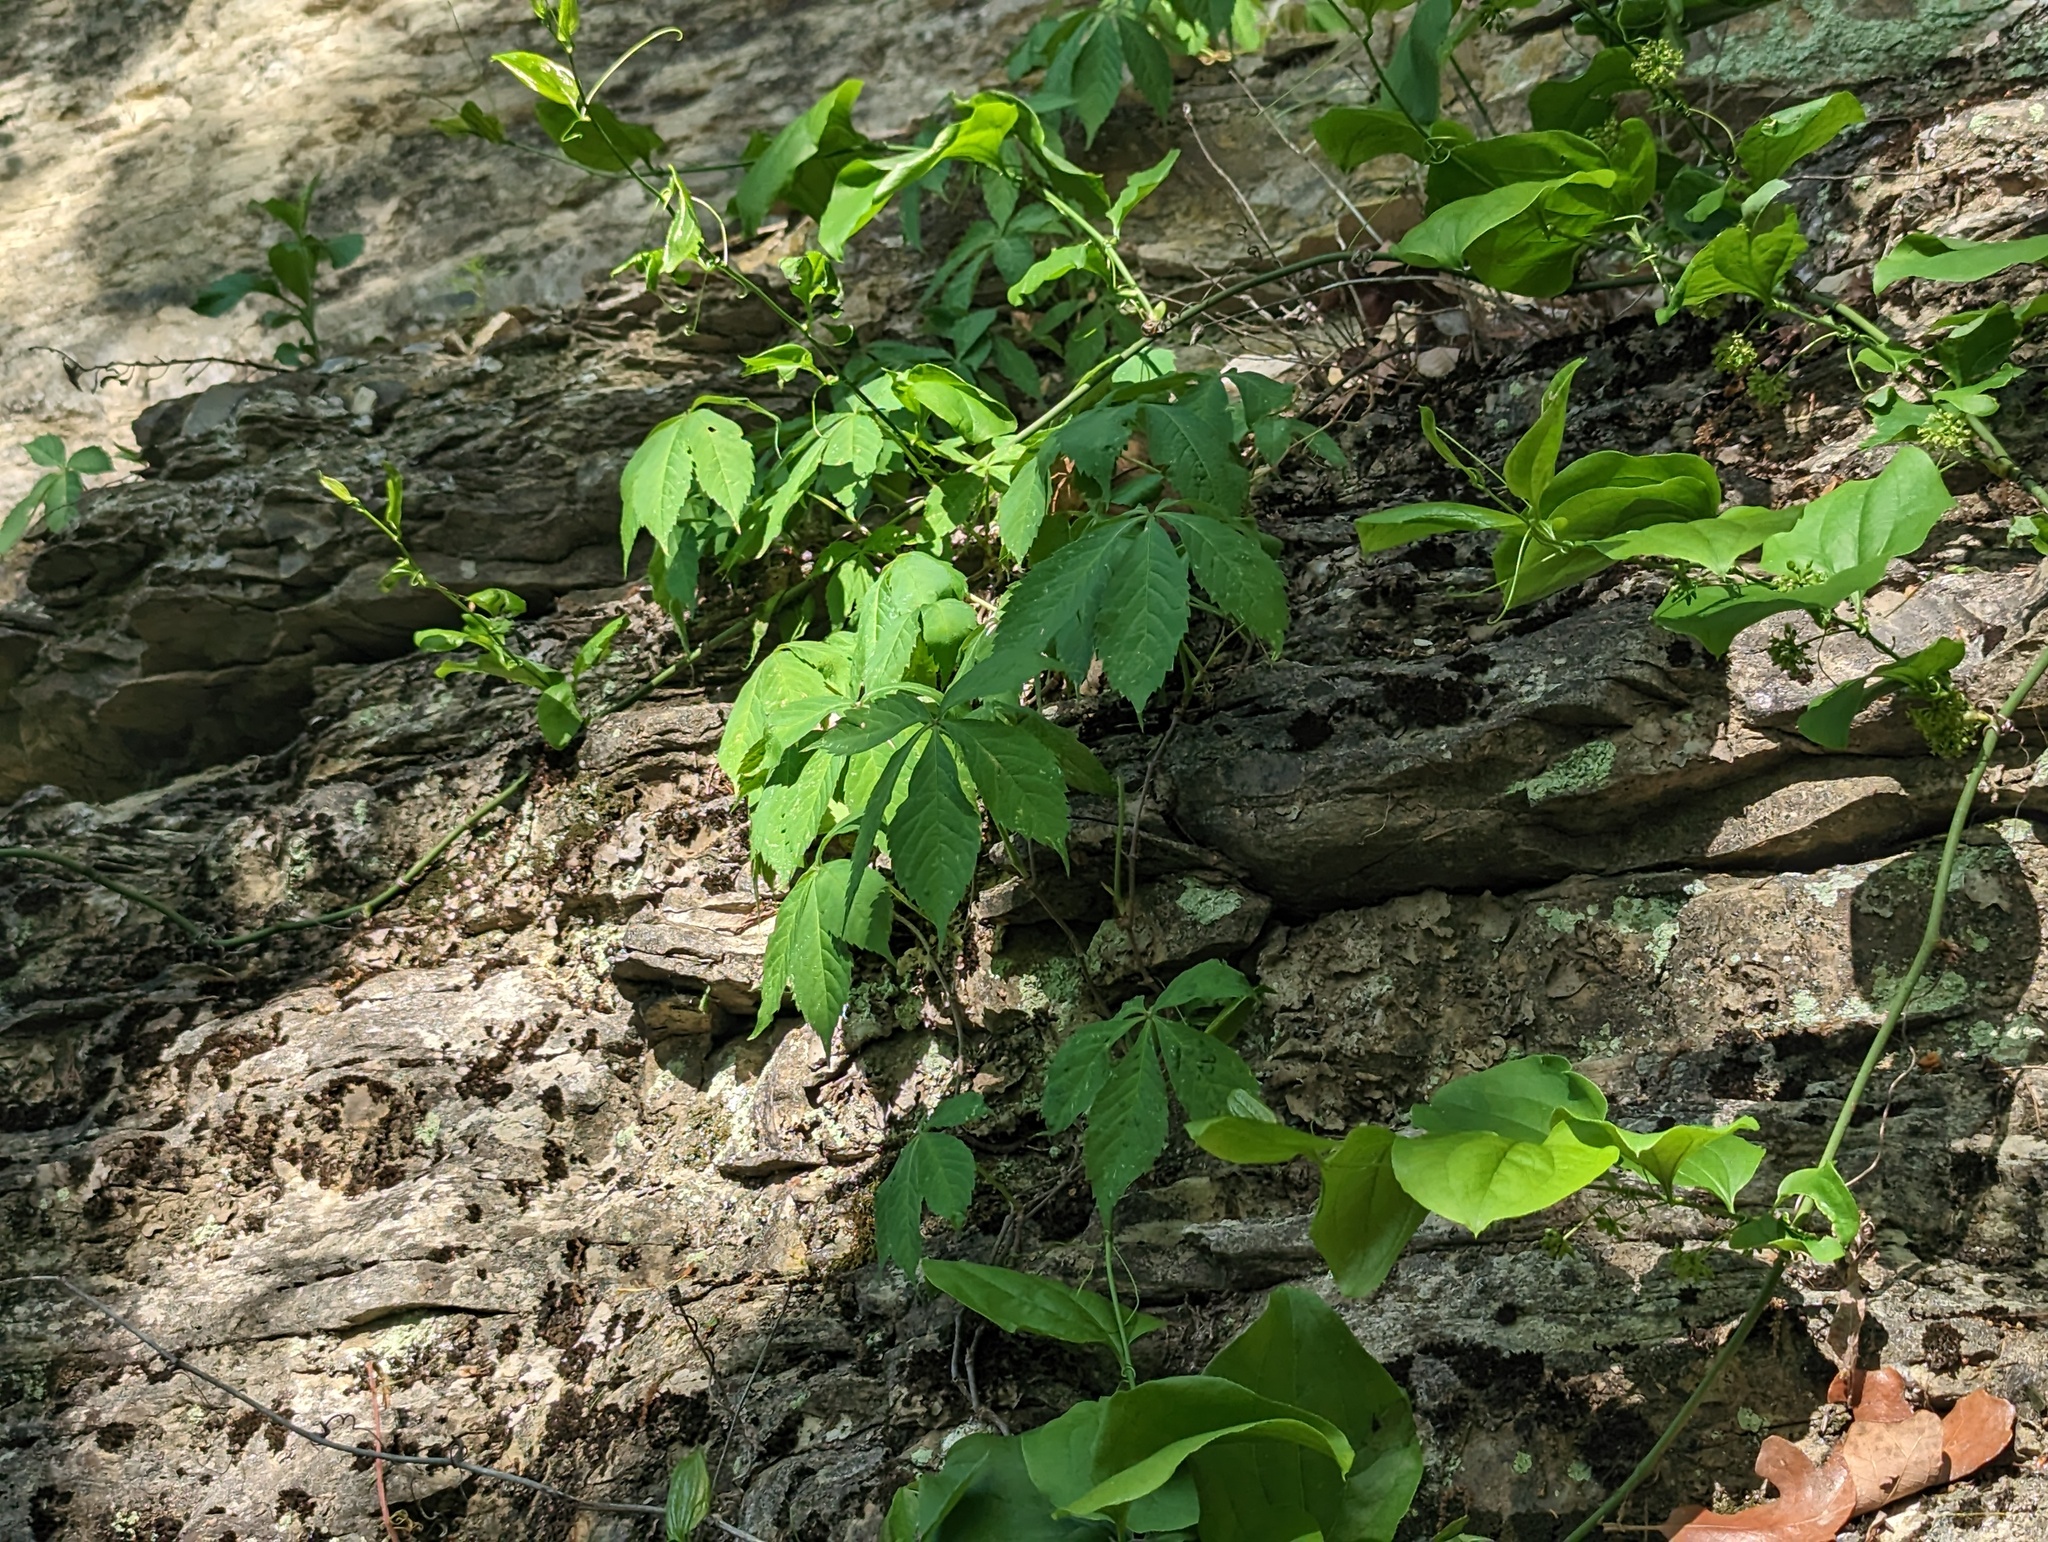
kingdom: Plantae
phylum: Tracheophyta
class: Magnoliopsida
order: Vitales
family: Vitaceae
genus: Parthenocissus
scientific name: Parthenocissus quinquefolia
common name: Virginia-creeper
